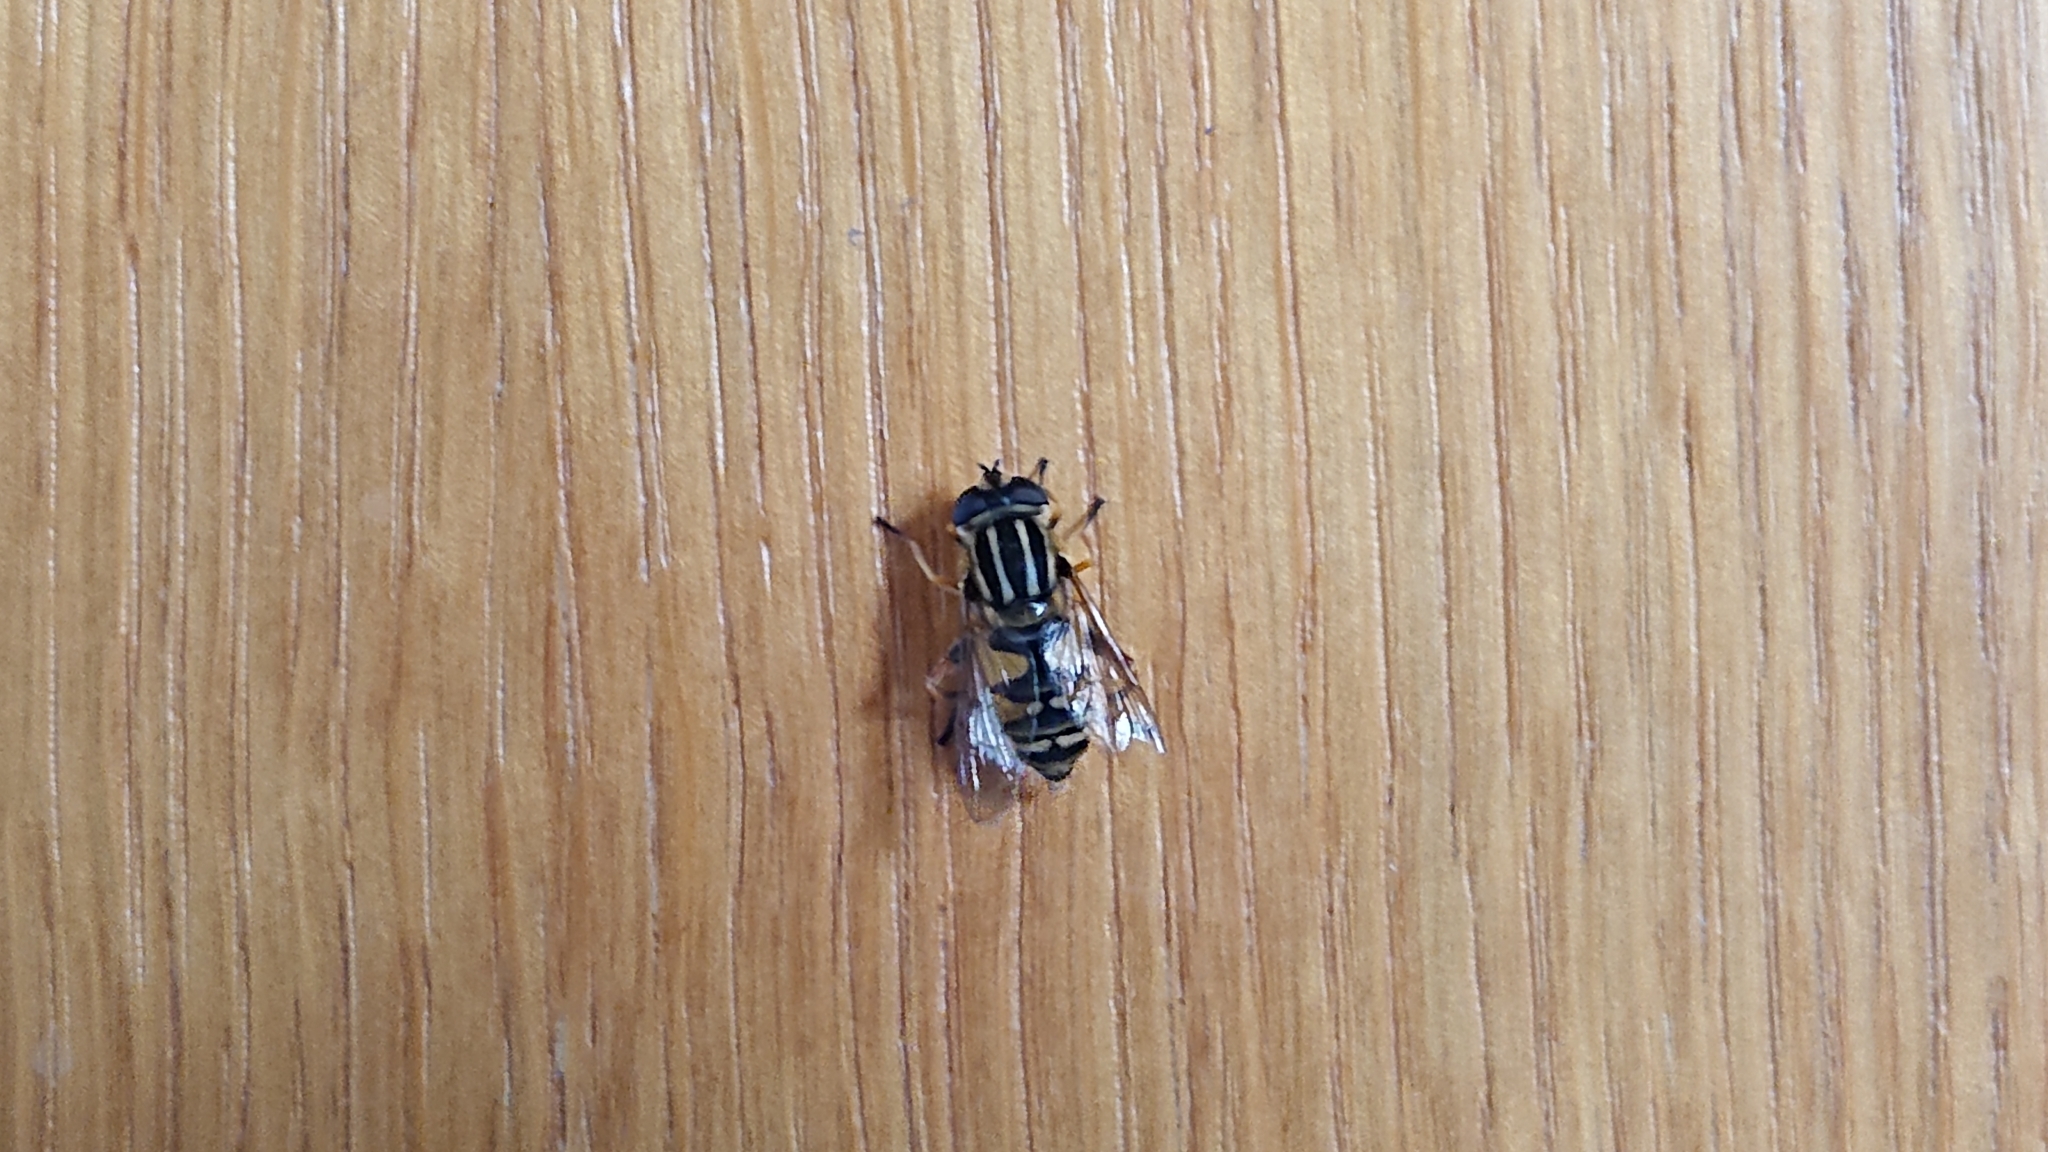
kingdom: Animalia
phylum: Arthropoda
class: Insecta
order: Diptera
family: Syrphidae
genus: Helophilus
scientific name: Helophilus pendulus
